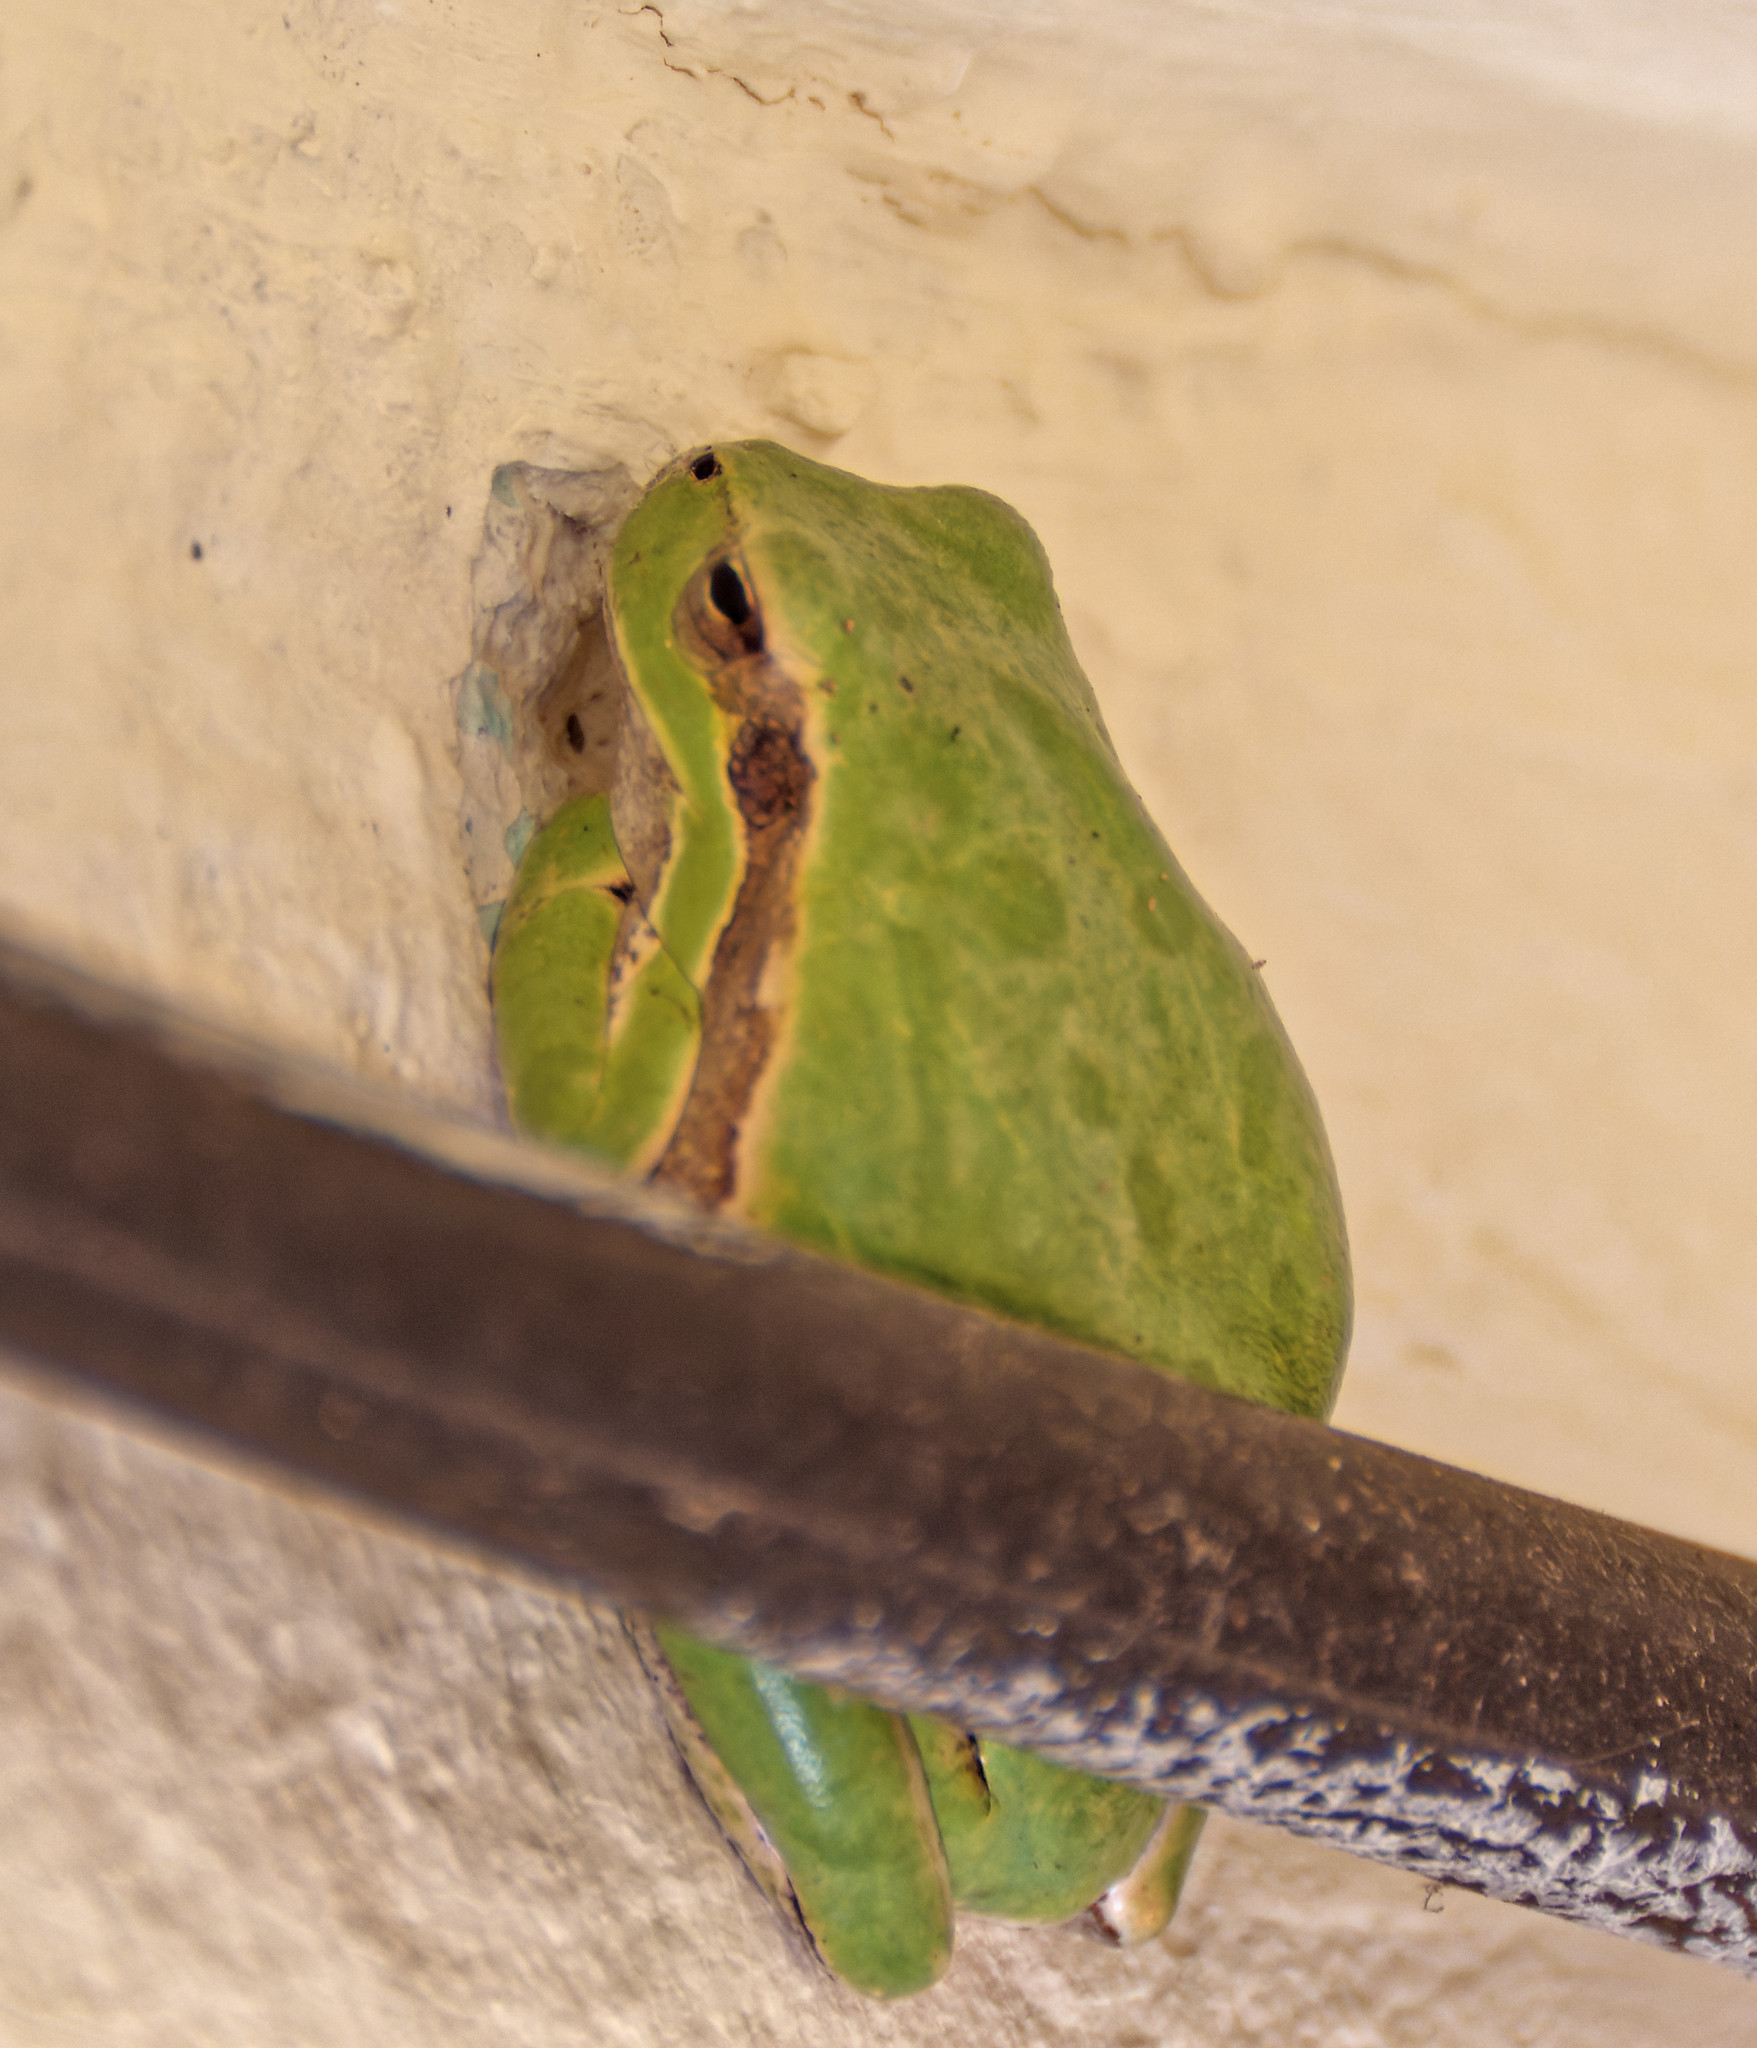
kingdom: Animalia
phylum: Chordata
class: Amphibia
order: Anura
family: Hylidae
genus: Hyla
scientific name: Hyla sarda
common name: Sardinian tree frog
